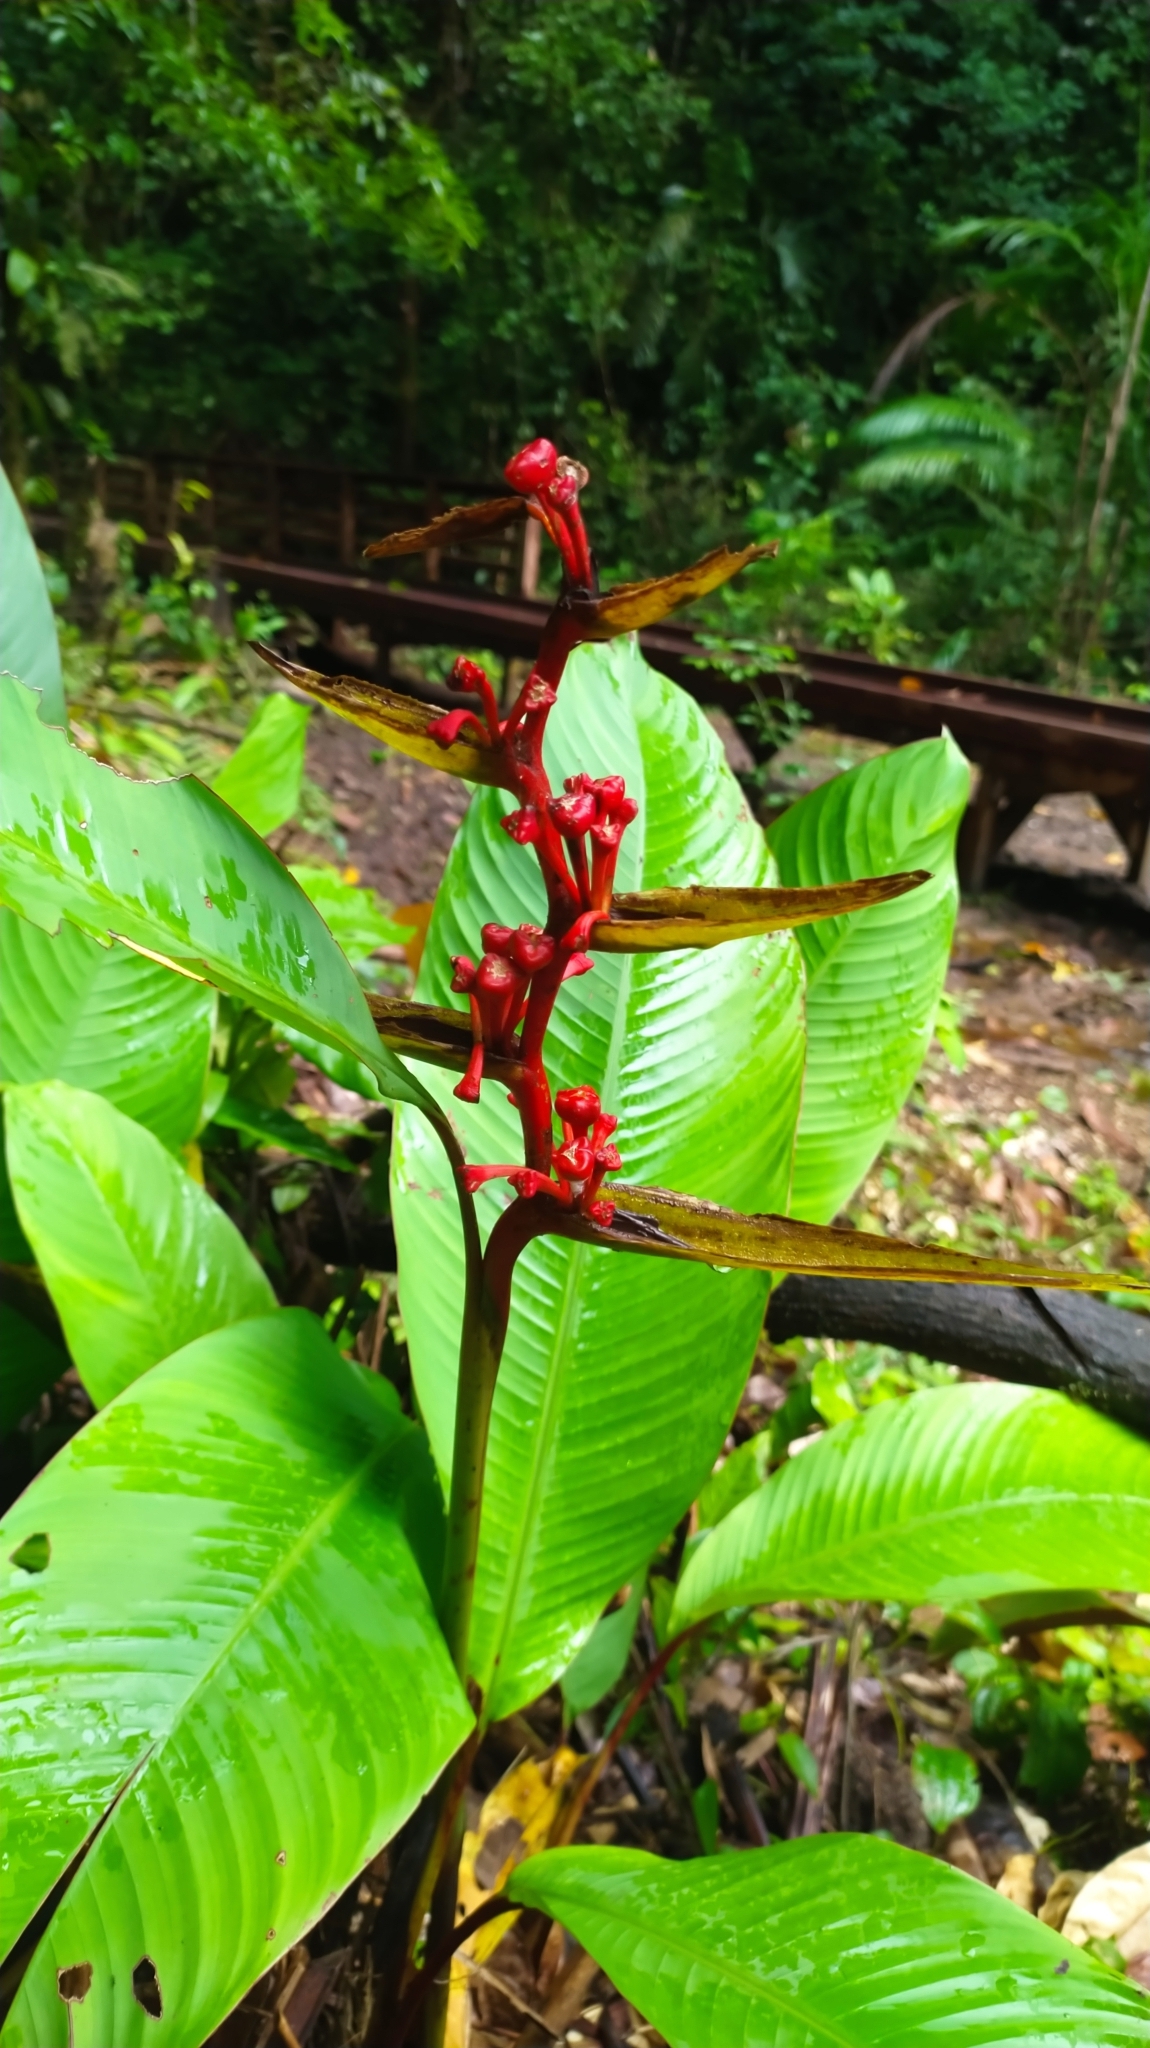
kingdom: Plantae
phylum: Tracheophyta
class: Liliopsida
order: Zingiberales
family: Heliconiaceae
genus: Heliconia
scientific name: Heliconia richardiana
